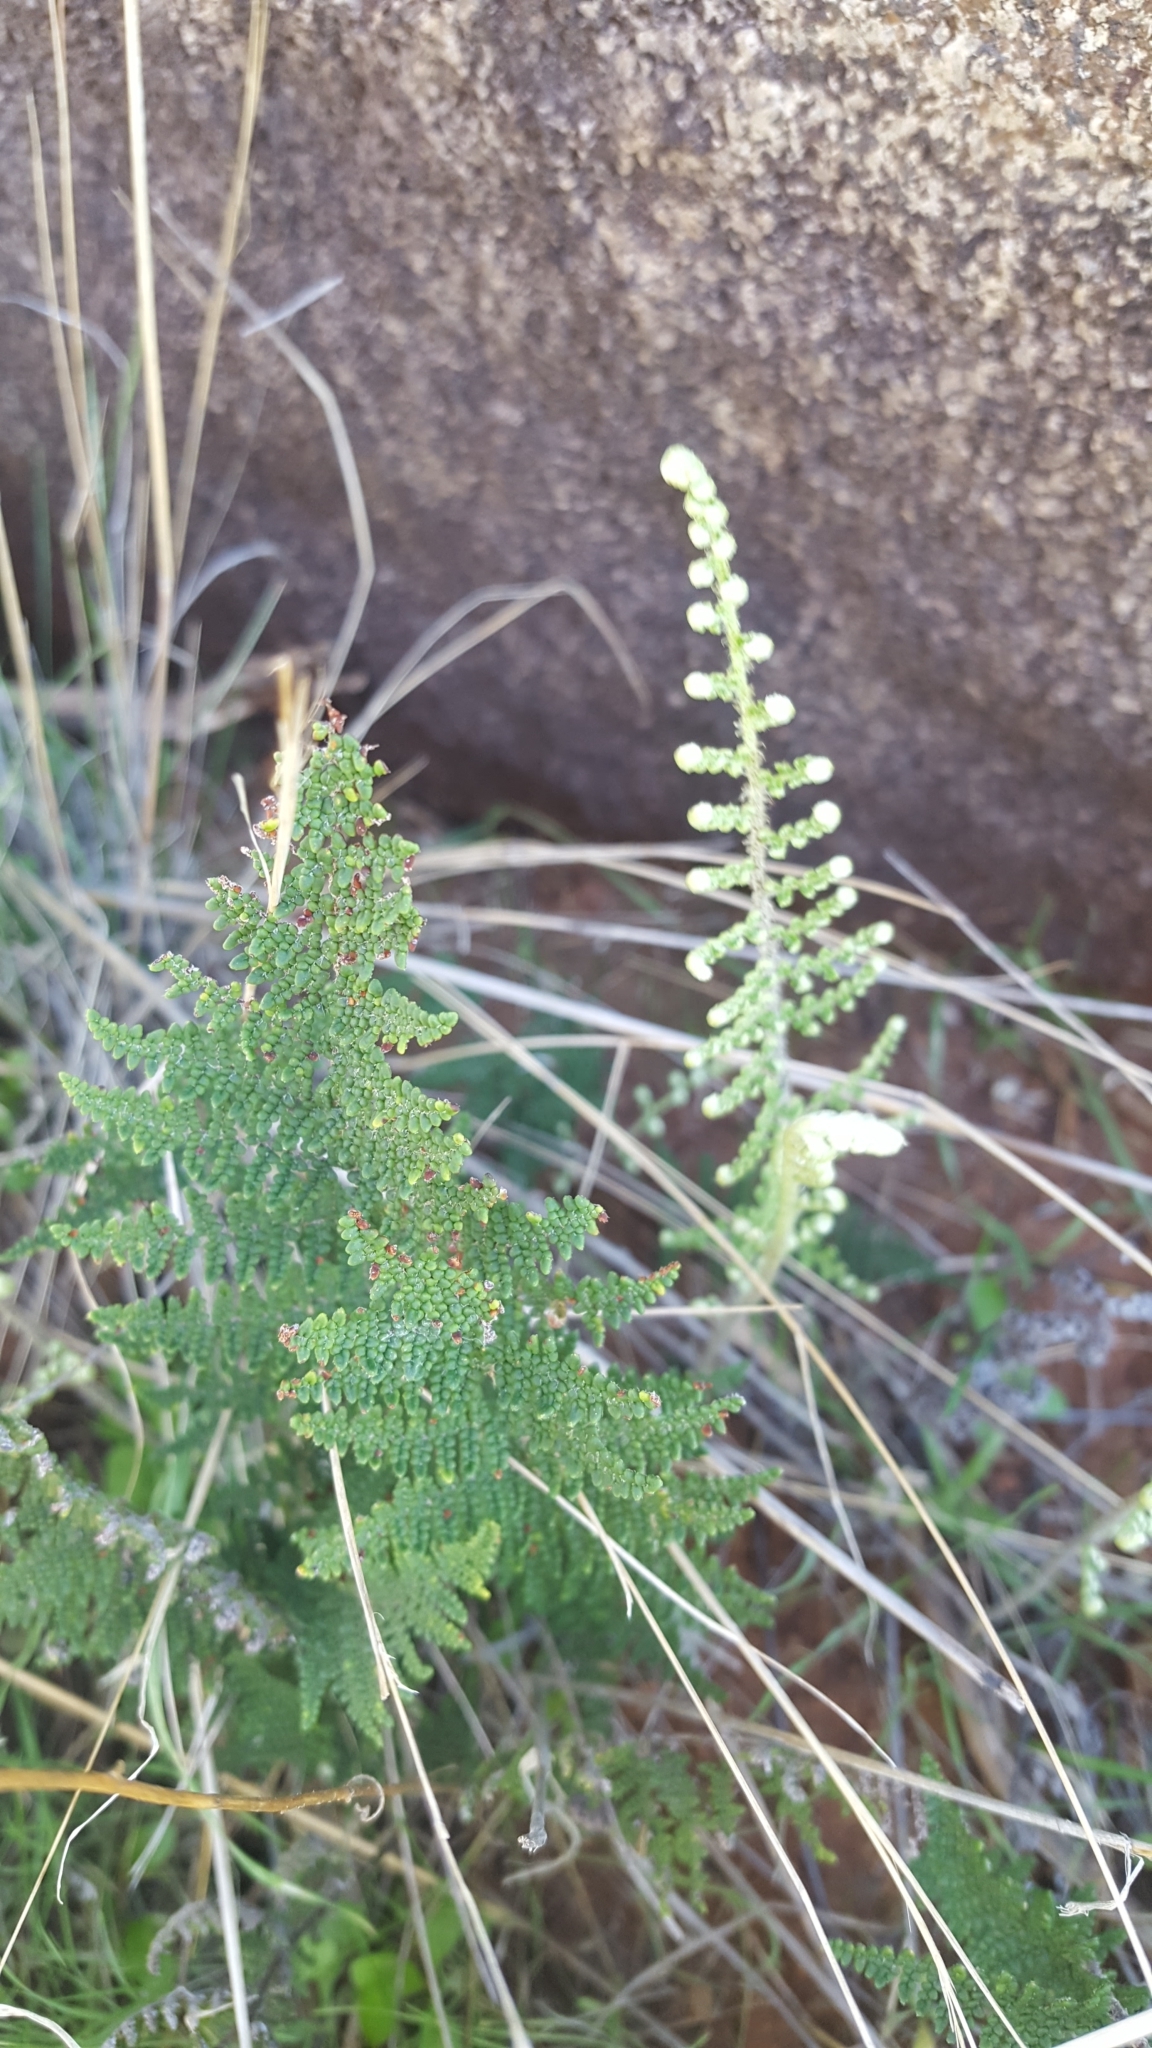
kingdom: Plantae
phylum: Tracheophyta
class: Polypodiopsida
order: Polypodiales
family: Pteridaceae
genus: Myriopteris
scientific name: Myriopteris clevelandii
